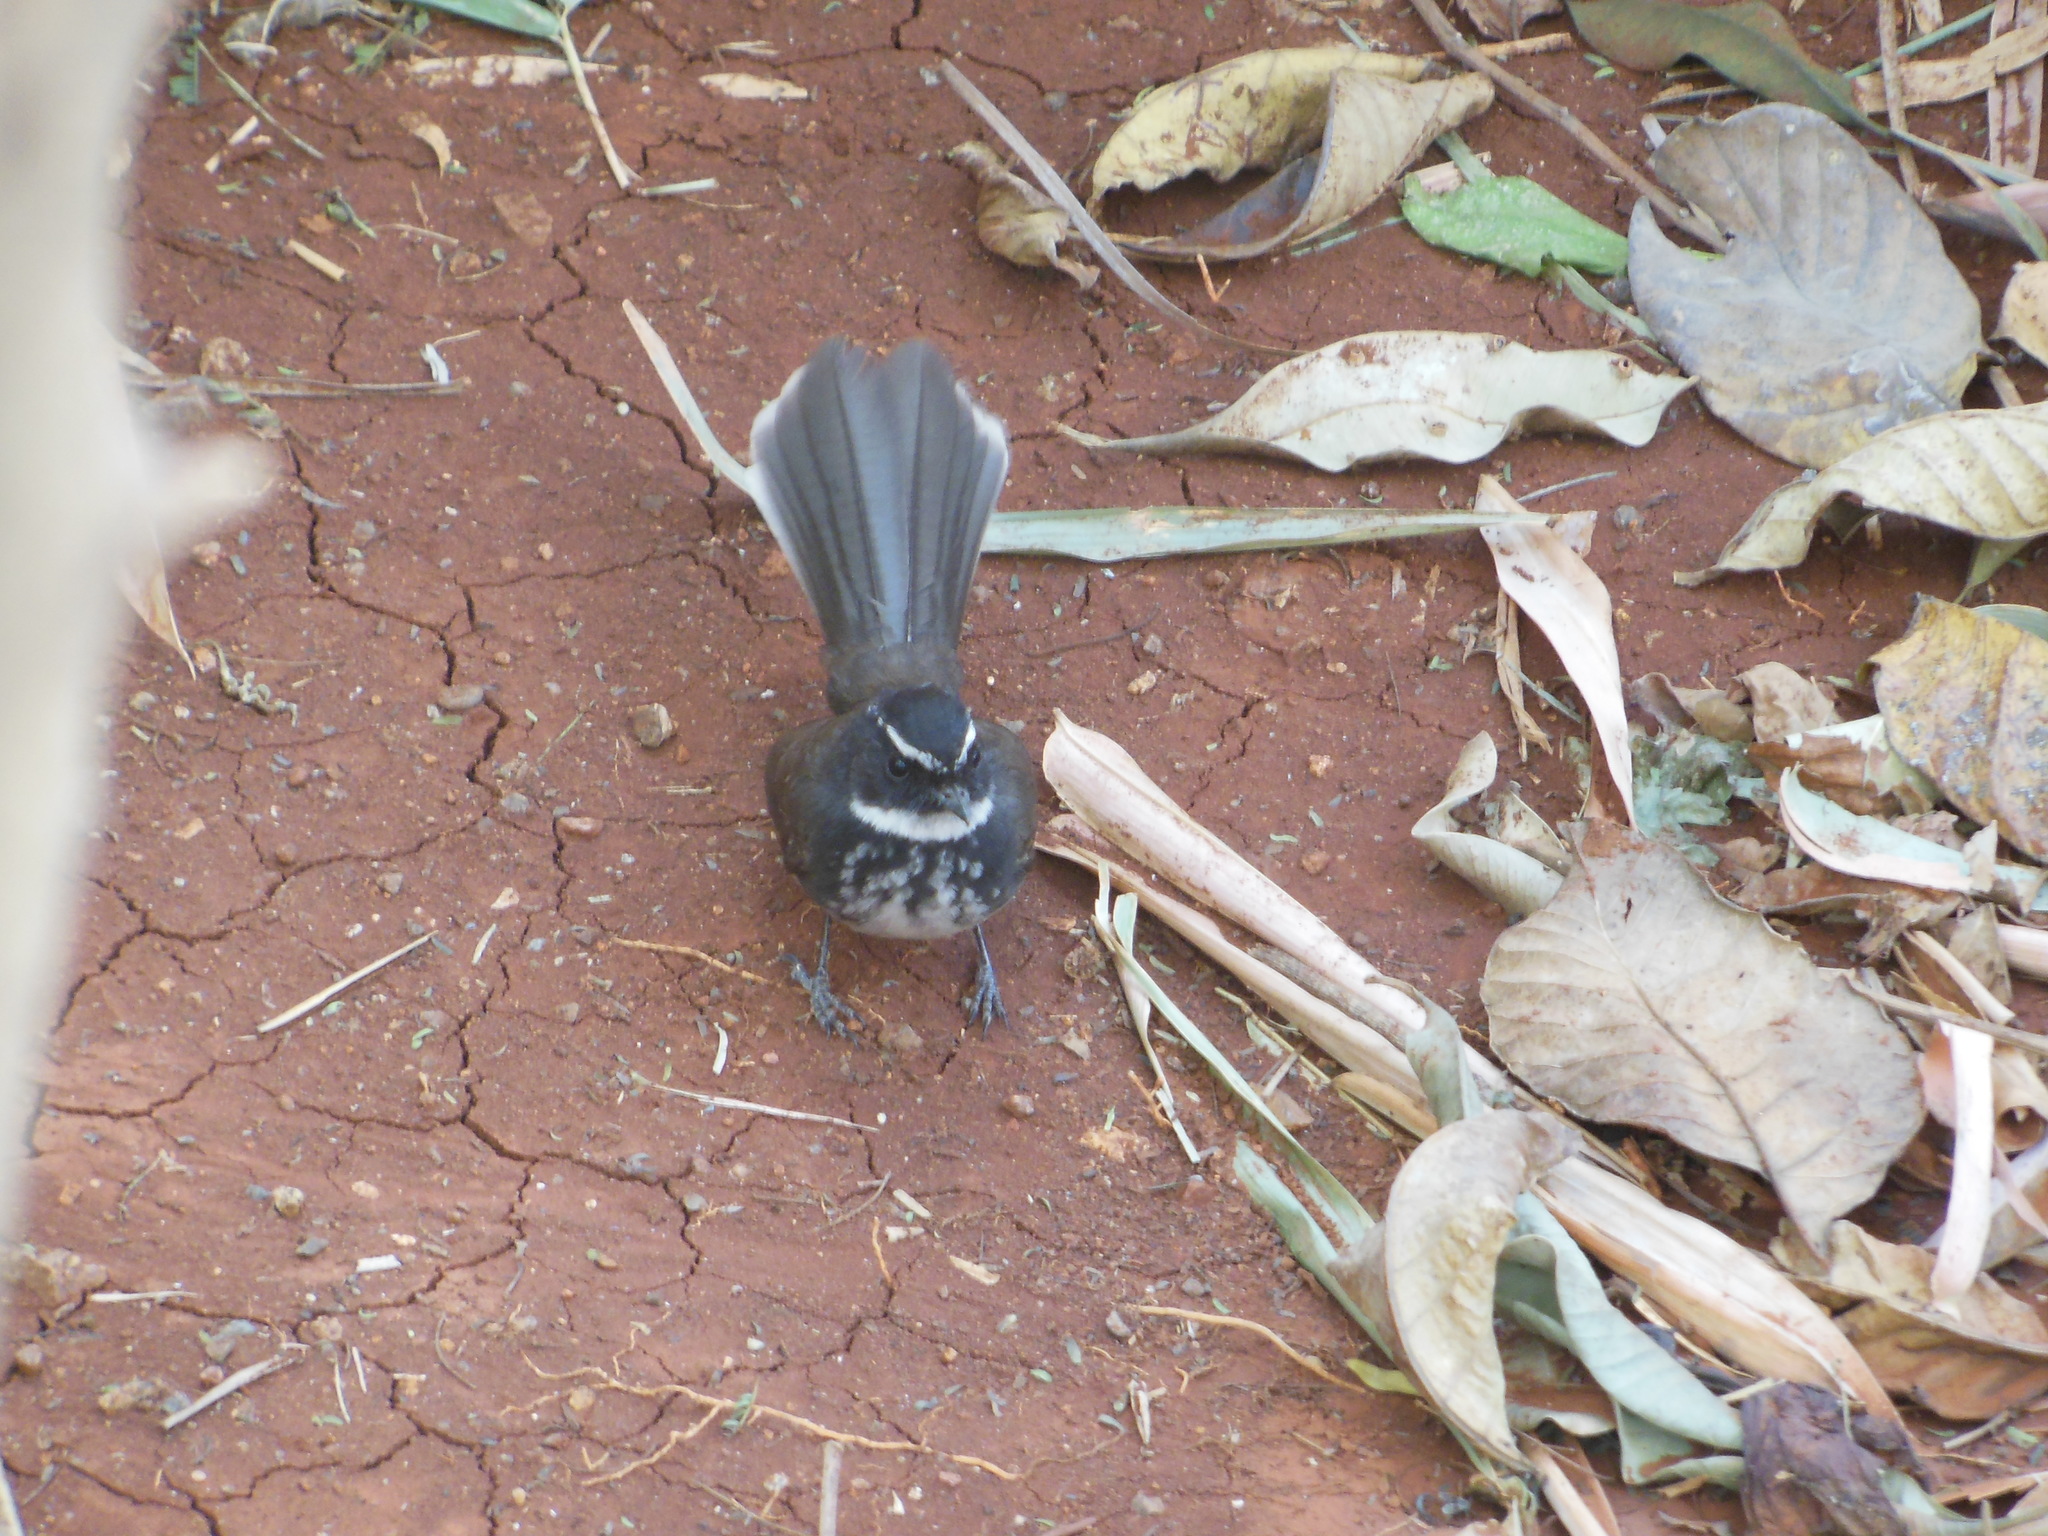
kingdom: Animalia
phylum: Chordata
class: Aves
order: Passeriformes
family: Rhipiduridae
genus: Rhipidura
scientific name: Rhipidura albogularis
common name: White-spotted fantail
